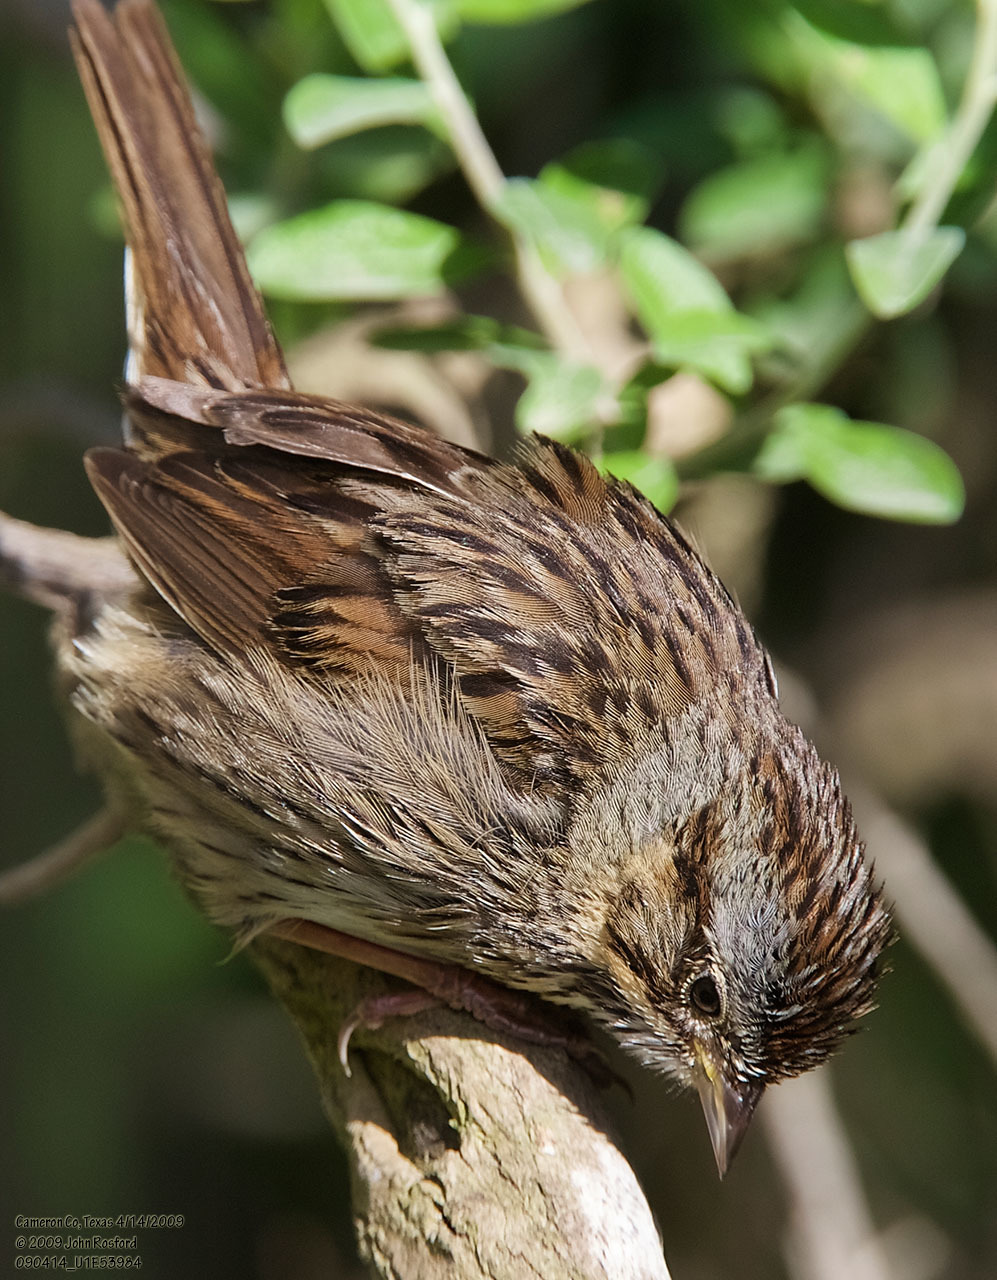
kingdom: Animalia
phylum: Chordata
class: Aves
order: Passeriformes
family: Passerellidae
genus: Melospiza
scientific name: Melospiza lincolnii
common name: Lincoln's sparrow
